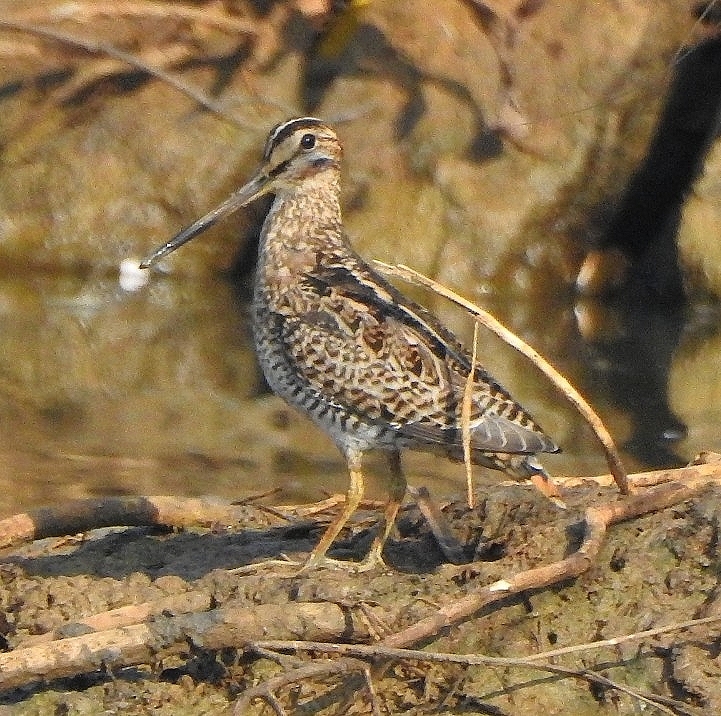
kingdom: Animalia
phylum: Chordata
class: Aves
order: Charadriiformes
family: Scolopacidae
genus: Gallinago
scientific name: Gallinago gallinago
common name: Common snipe
